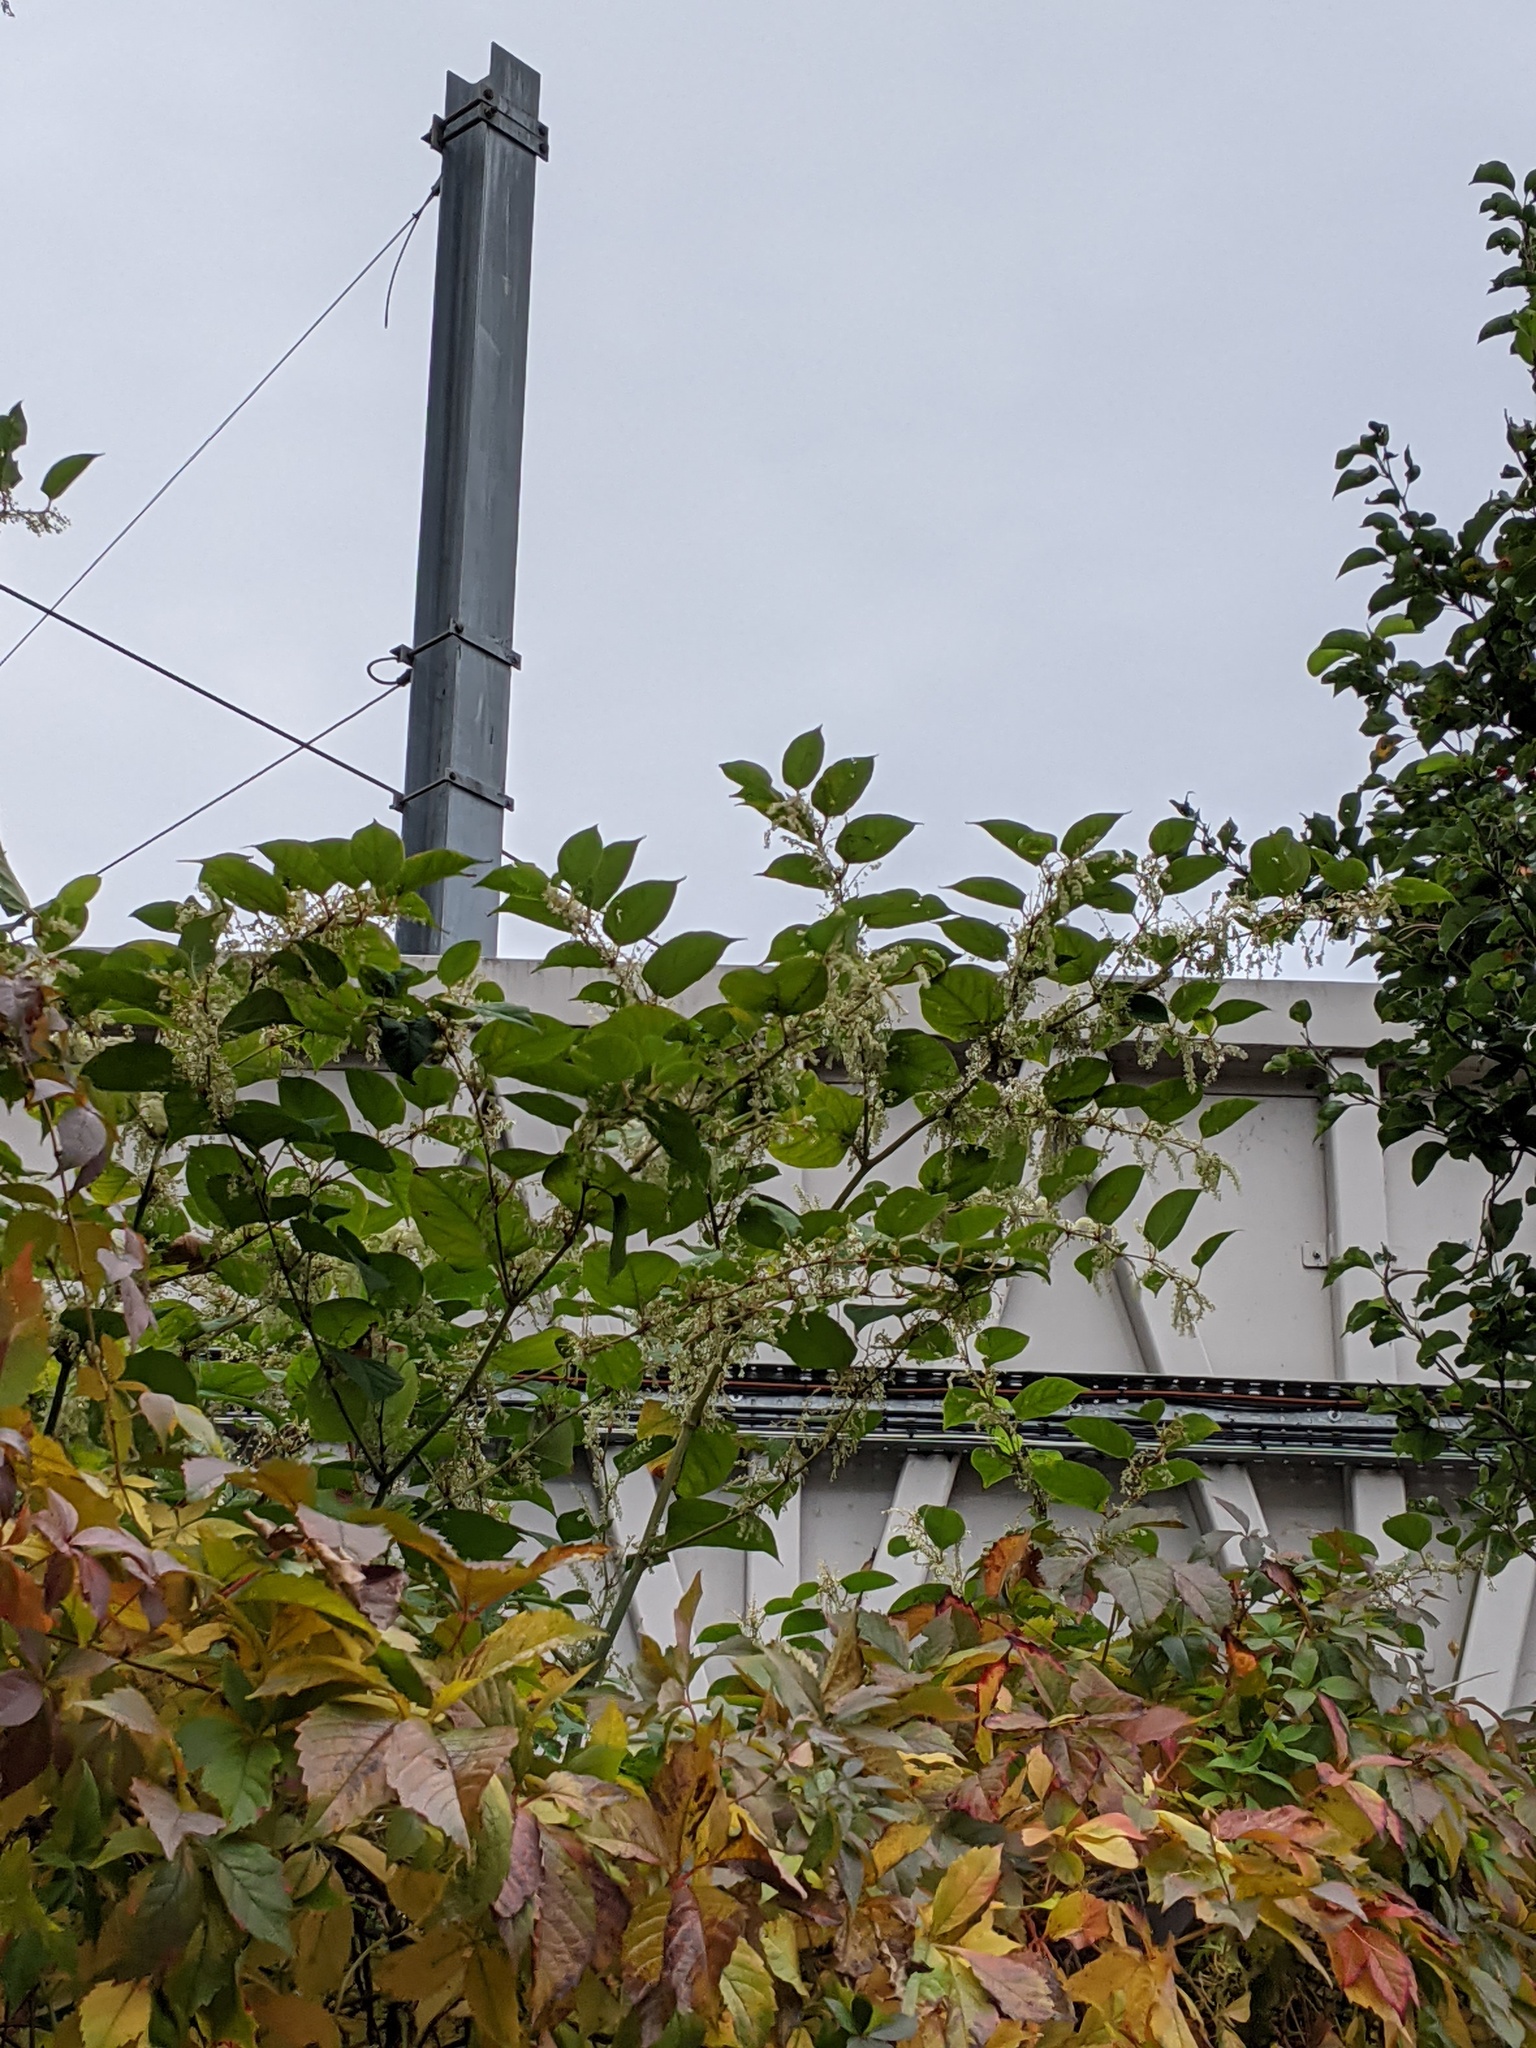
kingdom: Plantae
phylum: Tracheophyta
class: Magnoliopsida
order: Caryophyllales
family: Polygonaceae
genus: Reynoutria
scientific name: Reynoutria japonica
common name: Japanese knotweed
